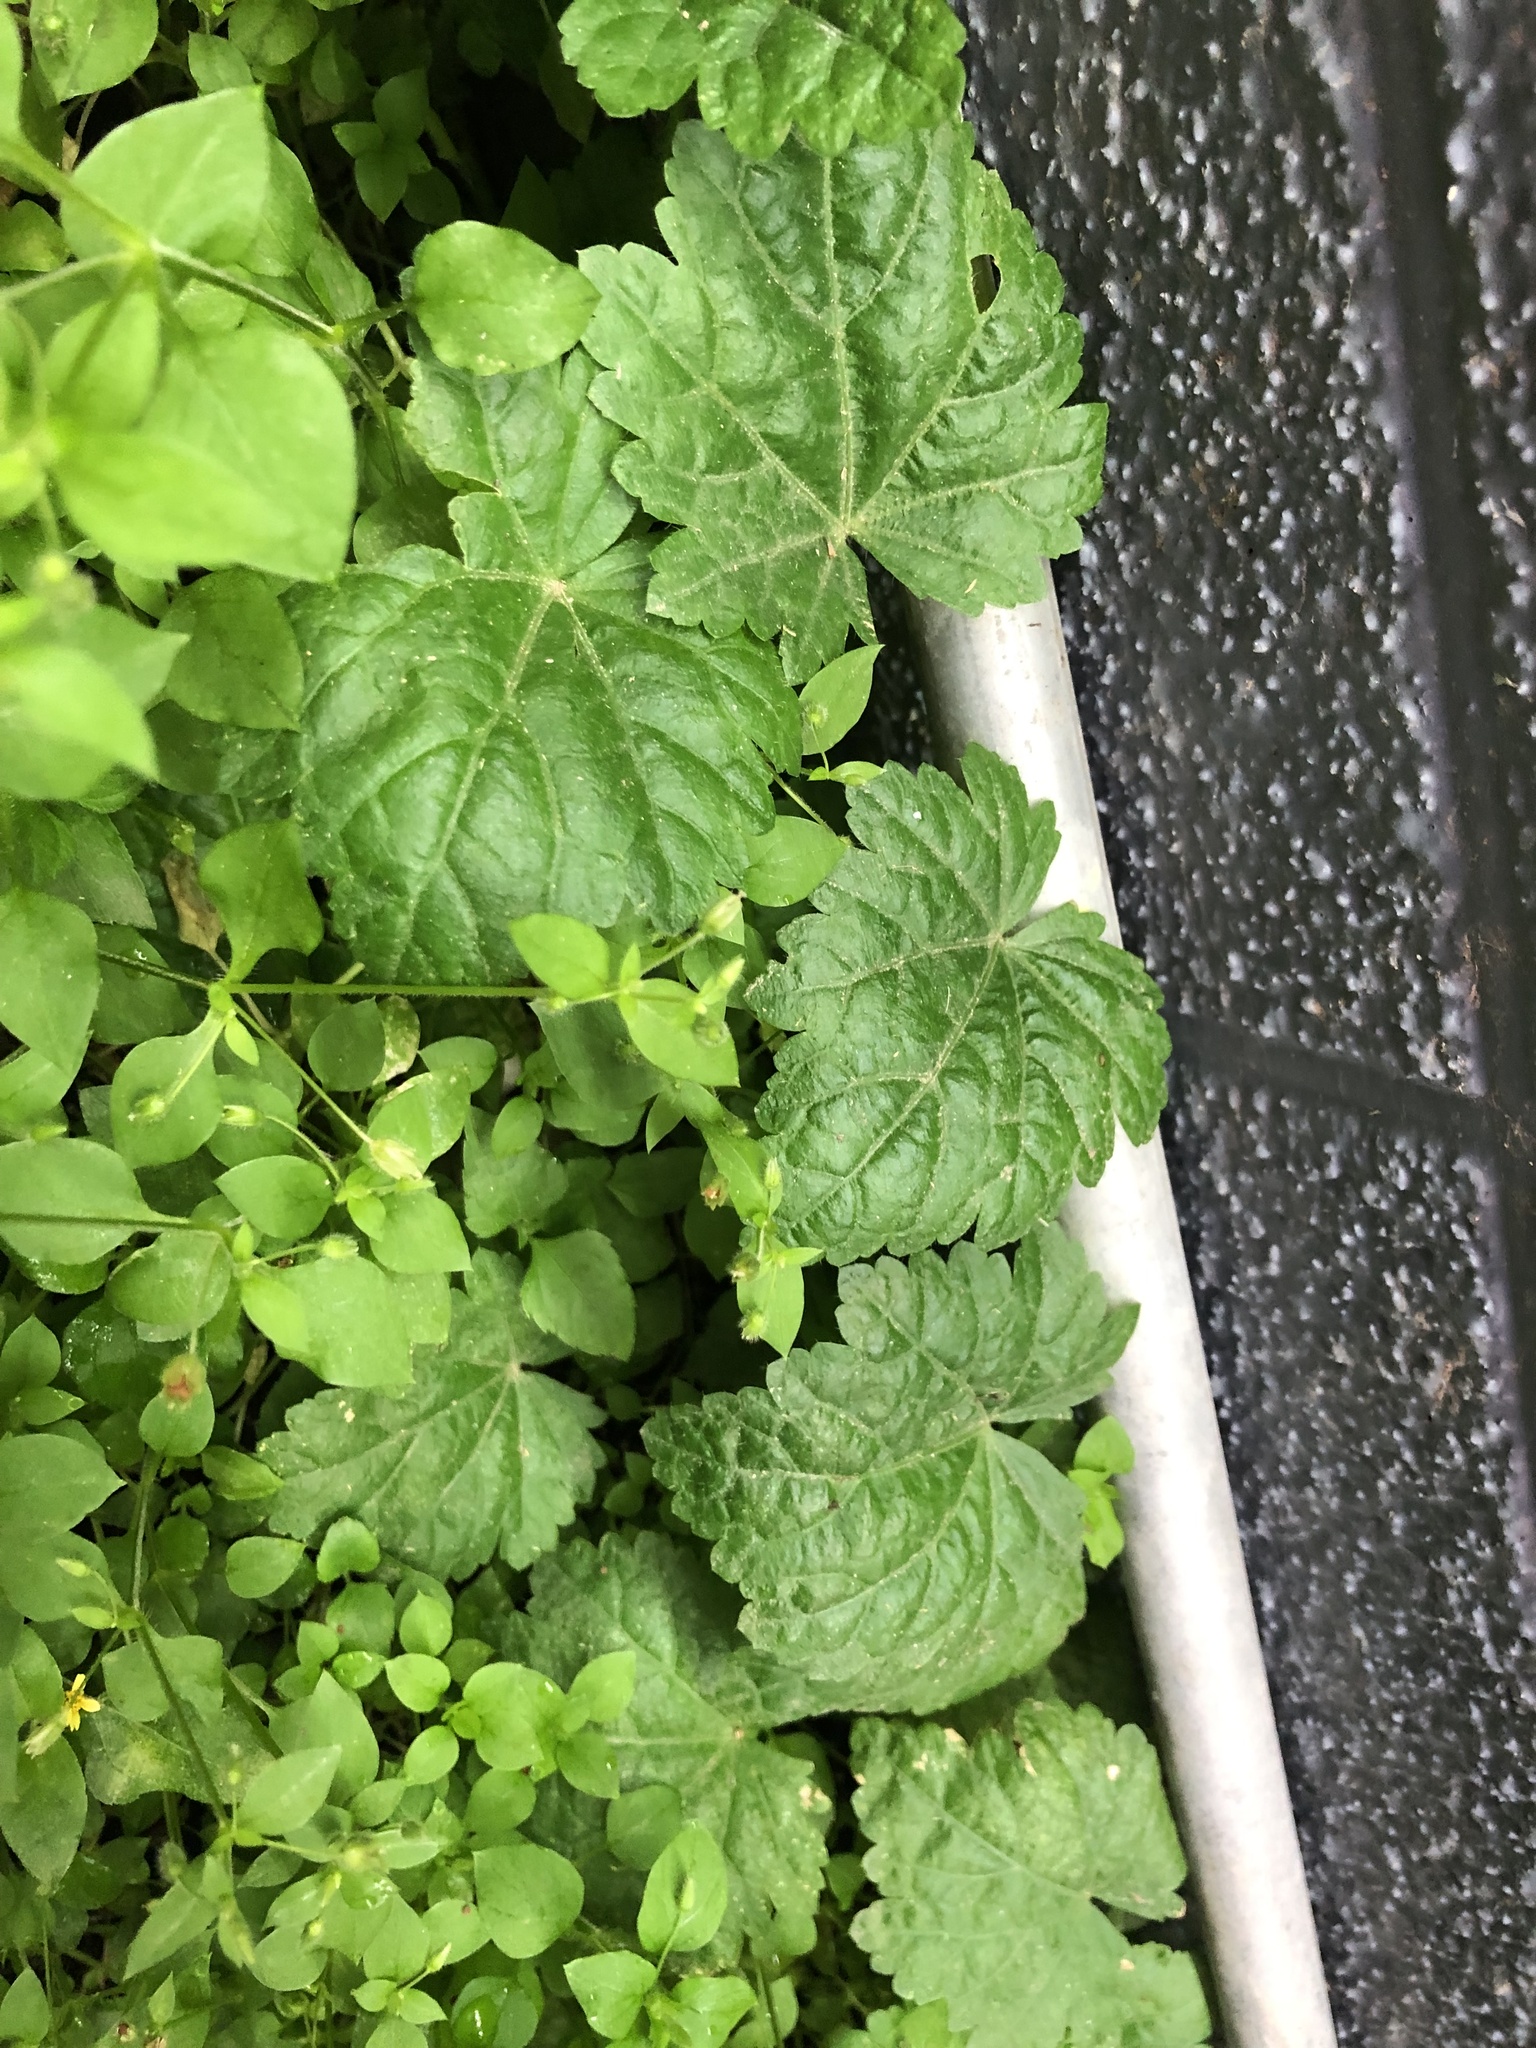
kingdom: Plantae
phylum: Tracheophyta
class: Magnoliopsida
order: Malvales
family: Malvaceae
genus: Modiola
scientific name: Modiola caroliniana
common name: Carolina bristlemallow
